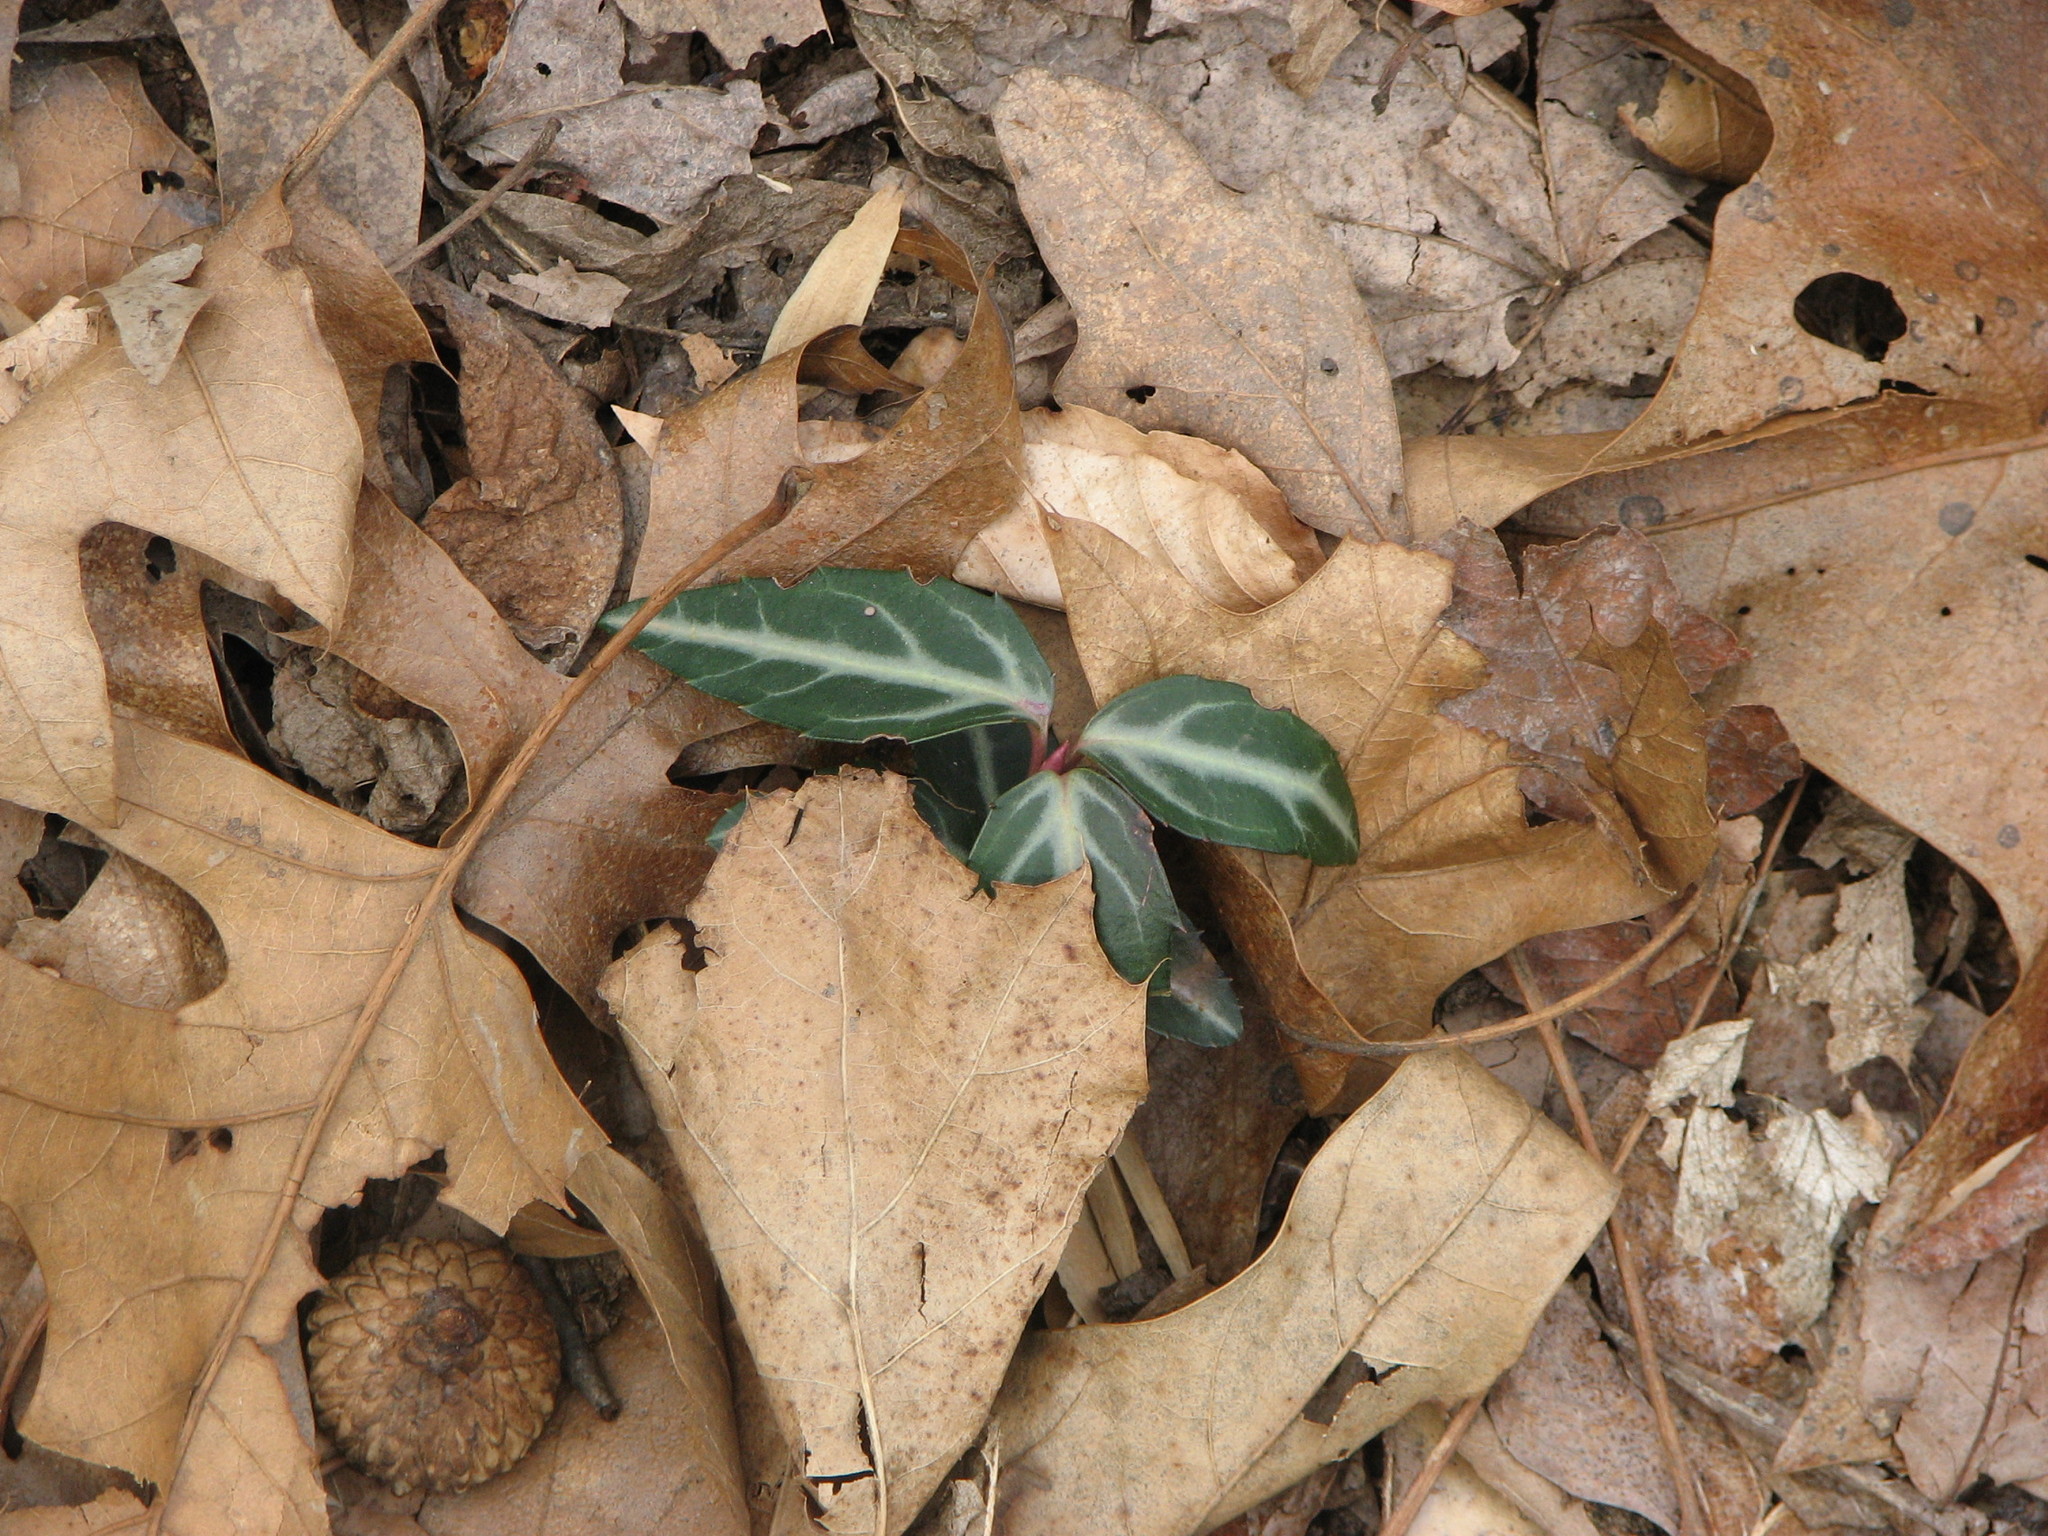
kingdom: Plantae
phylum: Tracheophyta
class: Magnoliopsida
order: Ericales
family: Ericaceae
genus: Chimaphila
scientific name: Chimaphila maculata
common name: Spotted pipsissewa
